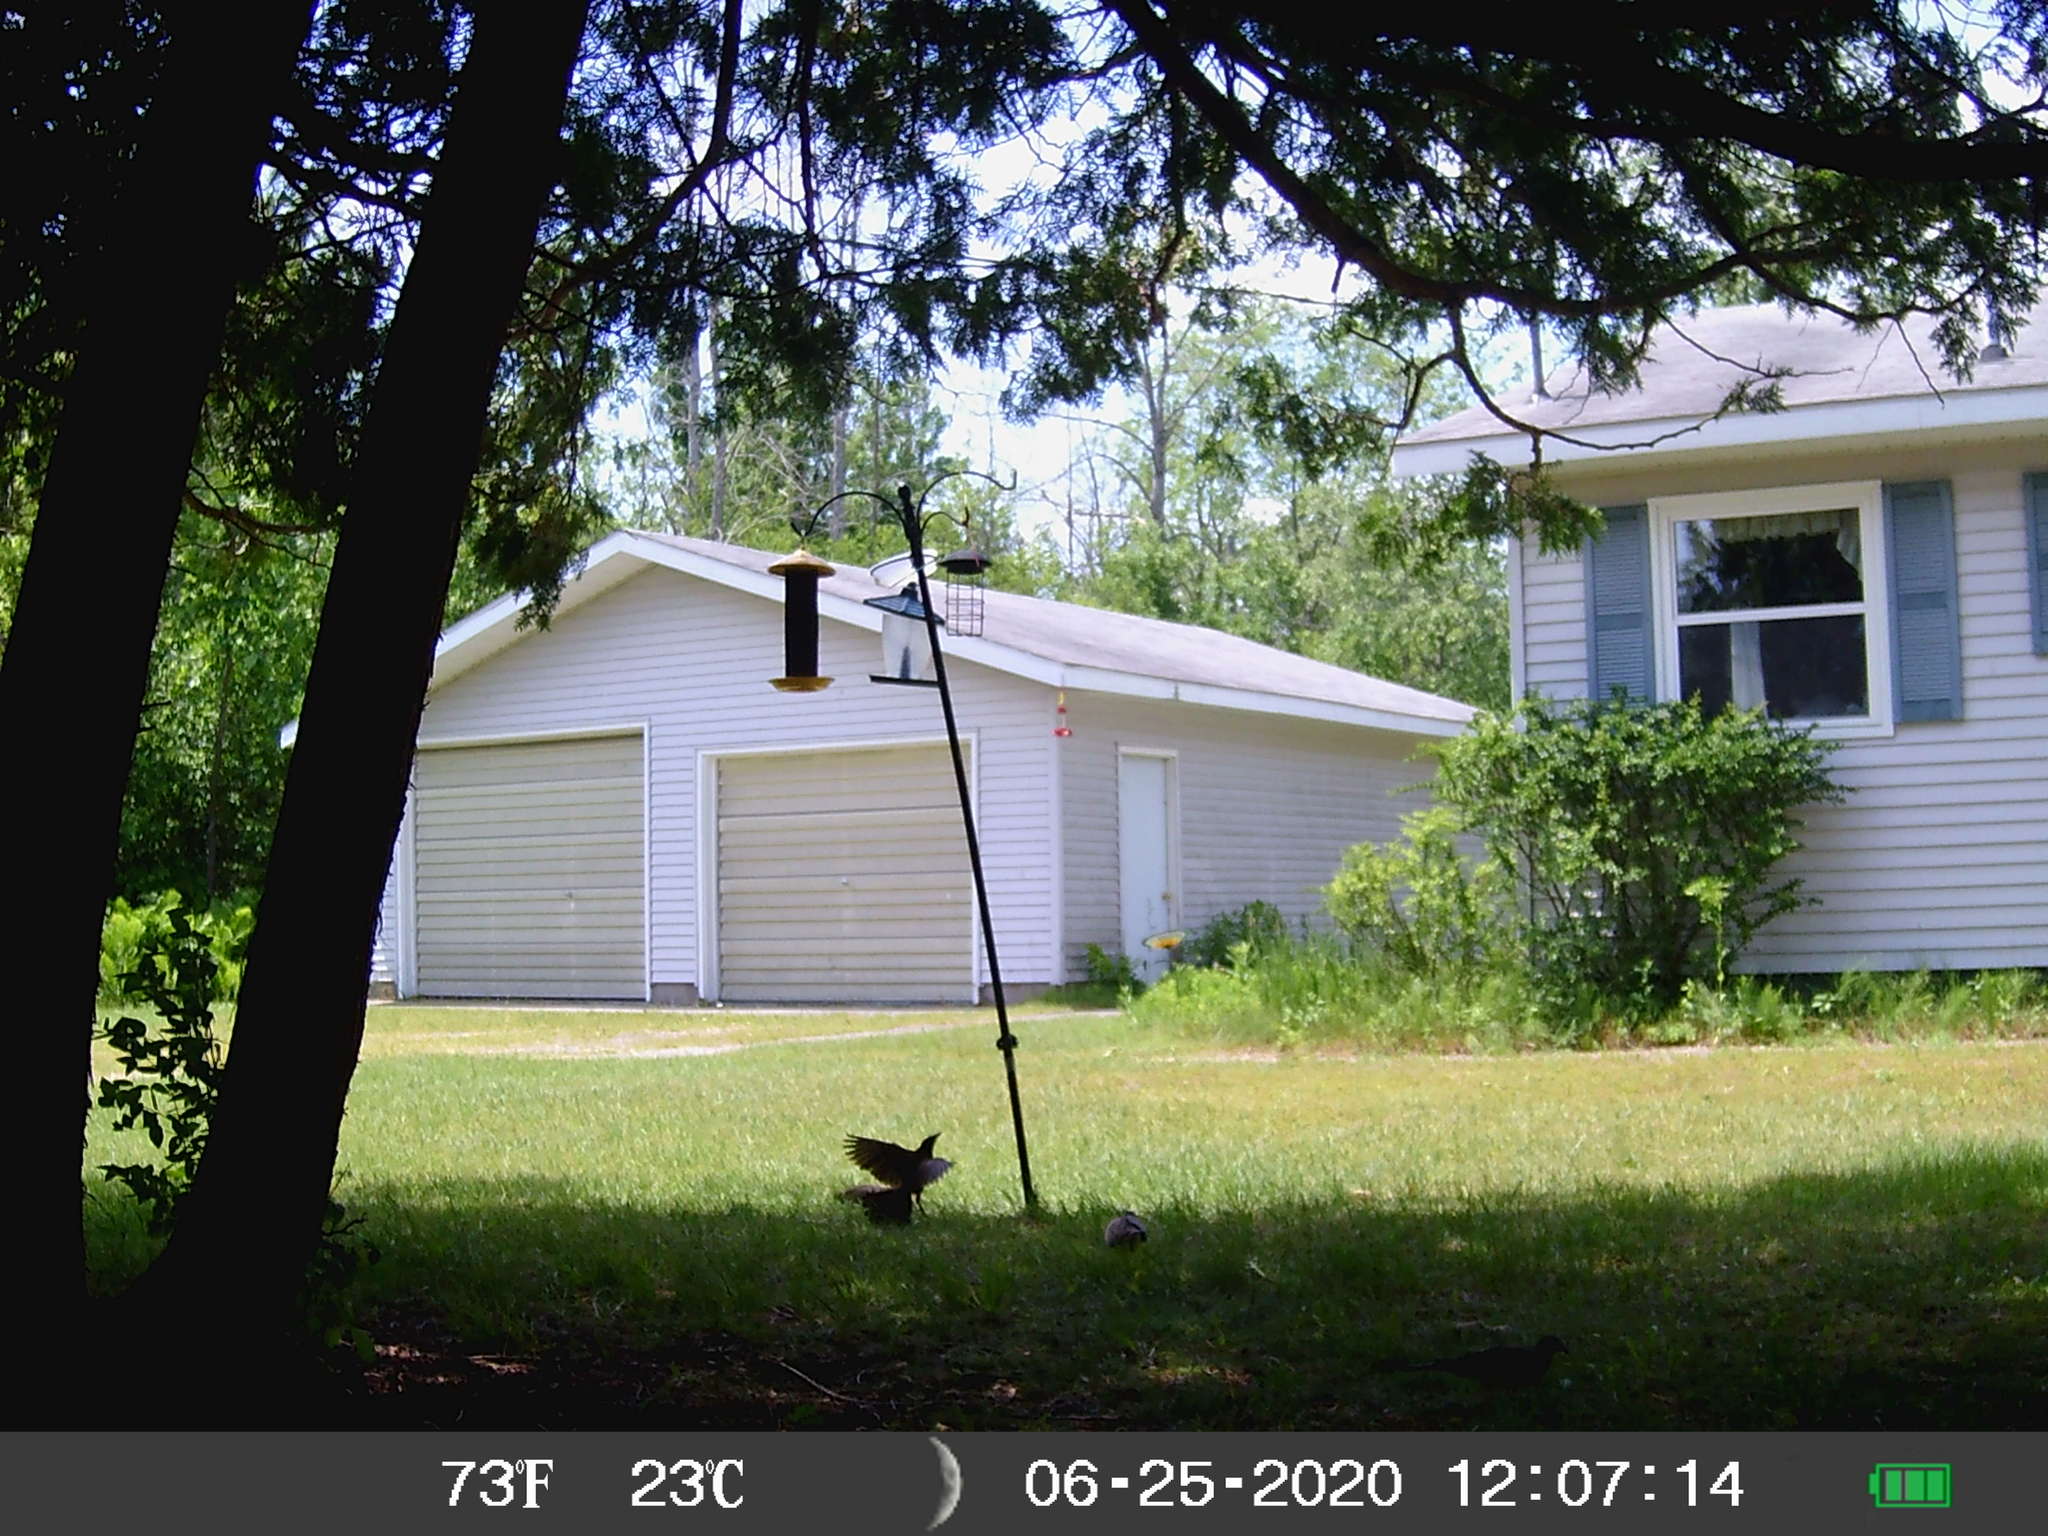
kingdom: Animalia
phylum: Chordata
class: Aves
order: Passeriformes
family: Icteridae
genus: Quiscalus
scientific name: Quiscalus quiscula
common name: Common grackle
